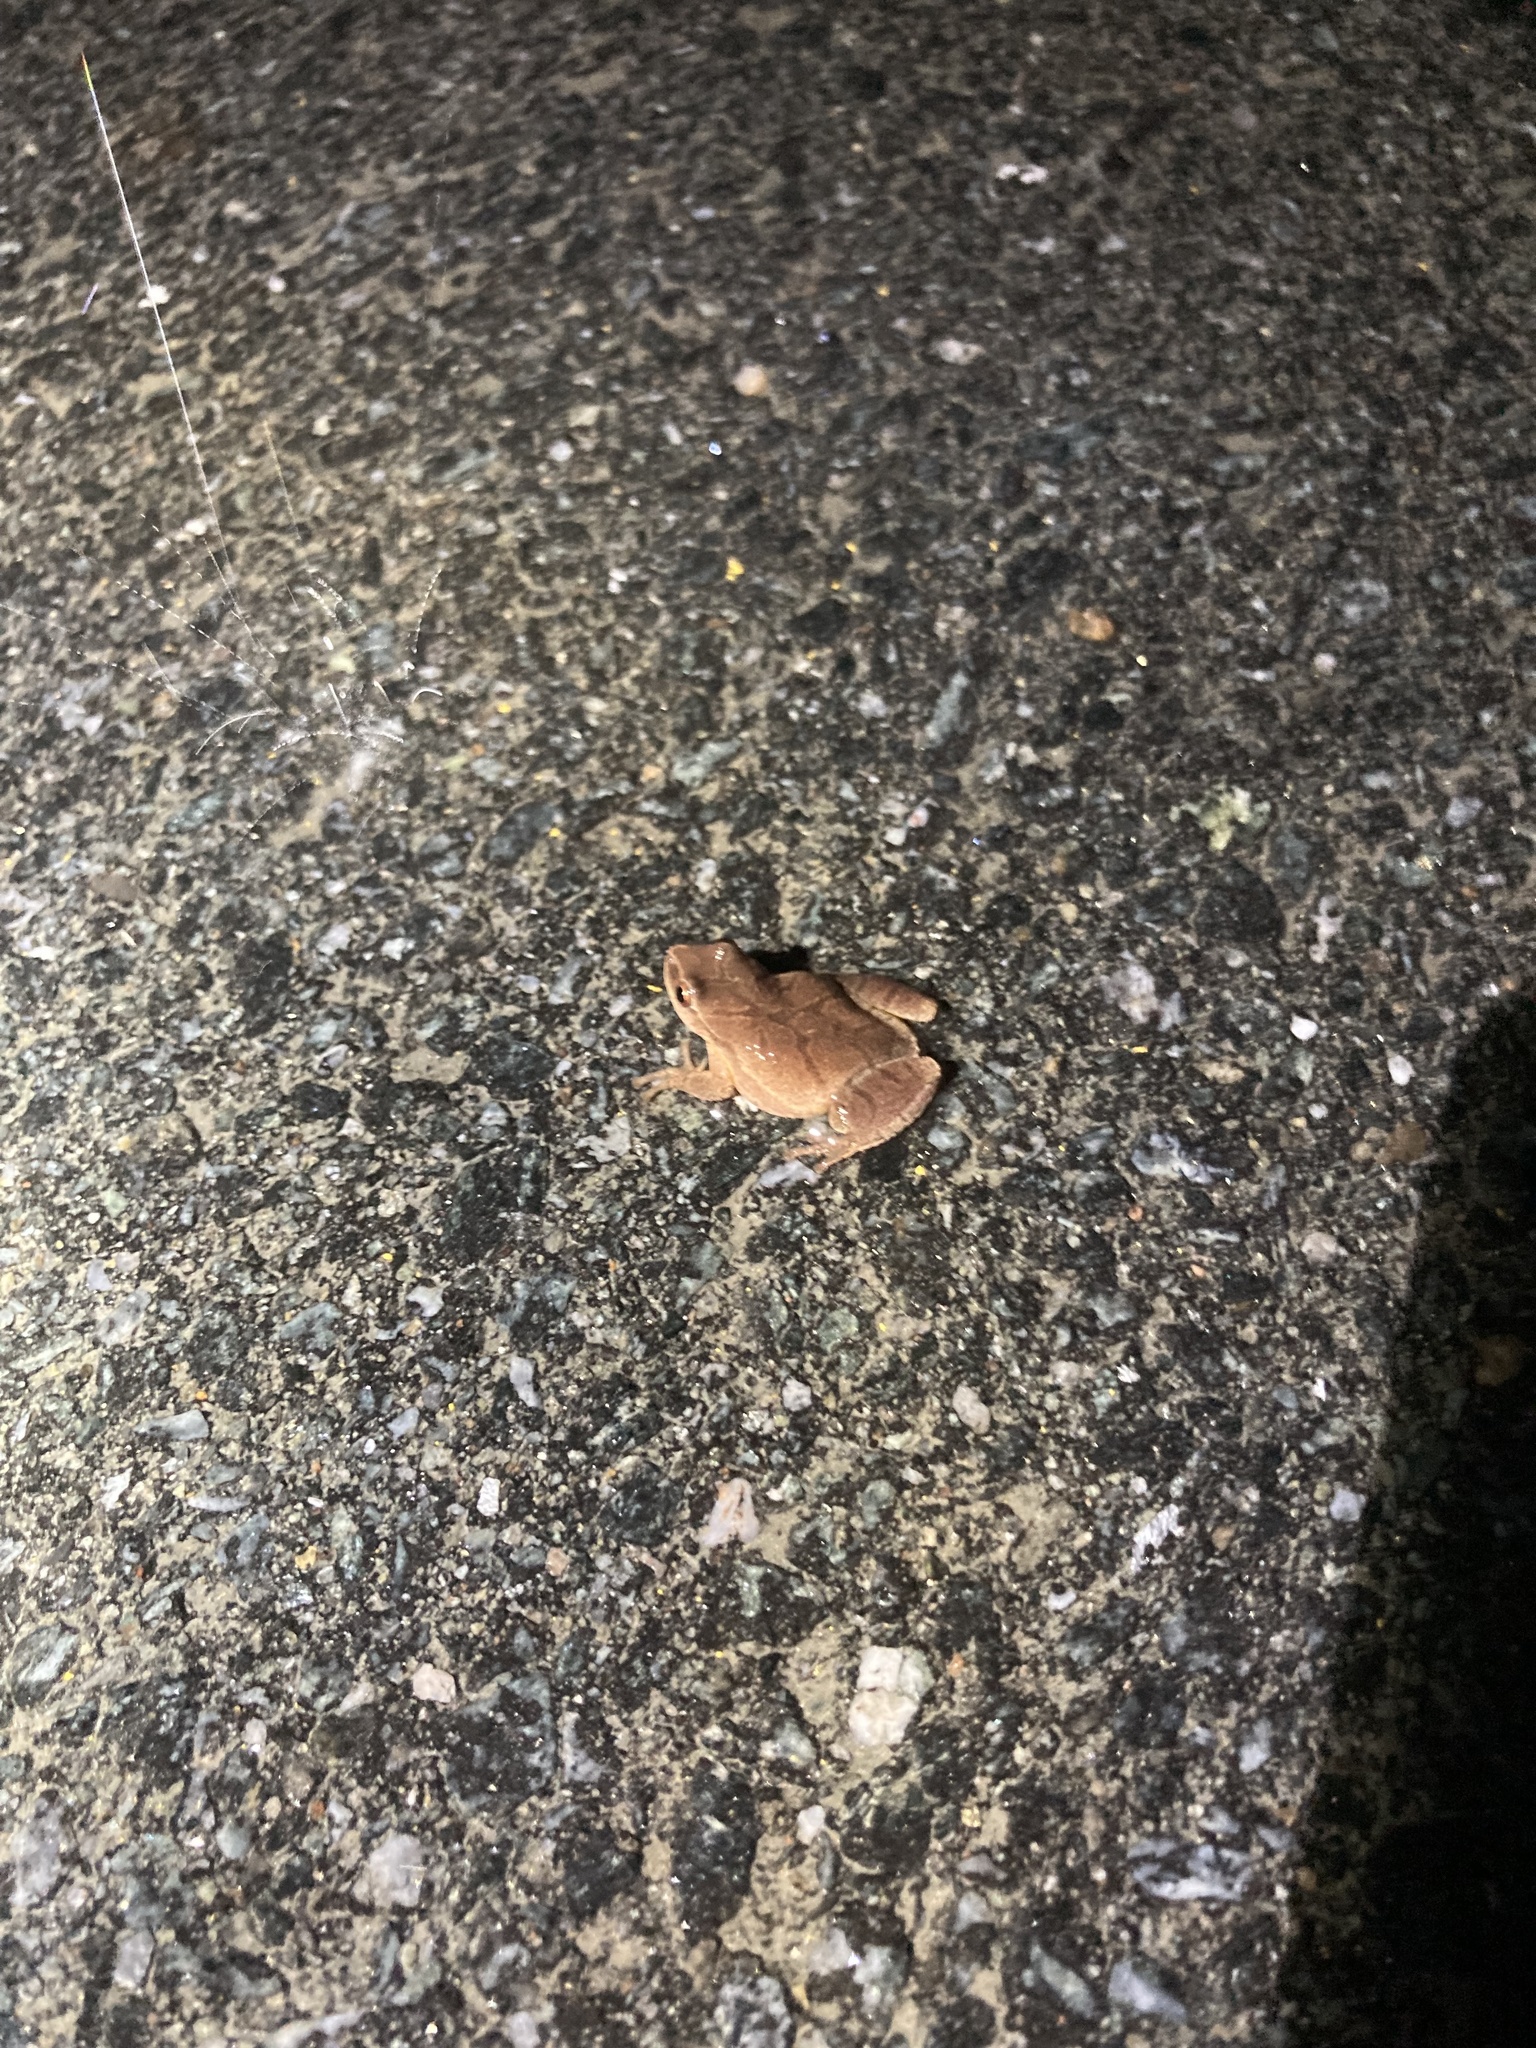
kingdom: Animalia
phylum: Chordata
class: Amphibia
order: Anura
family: Hylidae
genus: Pseudacris
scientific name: Pseudacris crucifer
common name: Spring peeper
